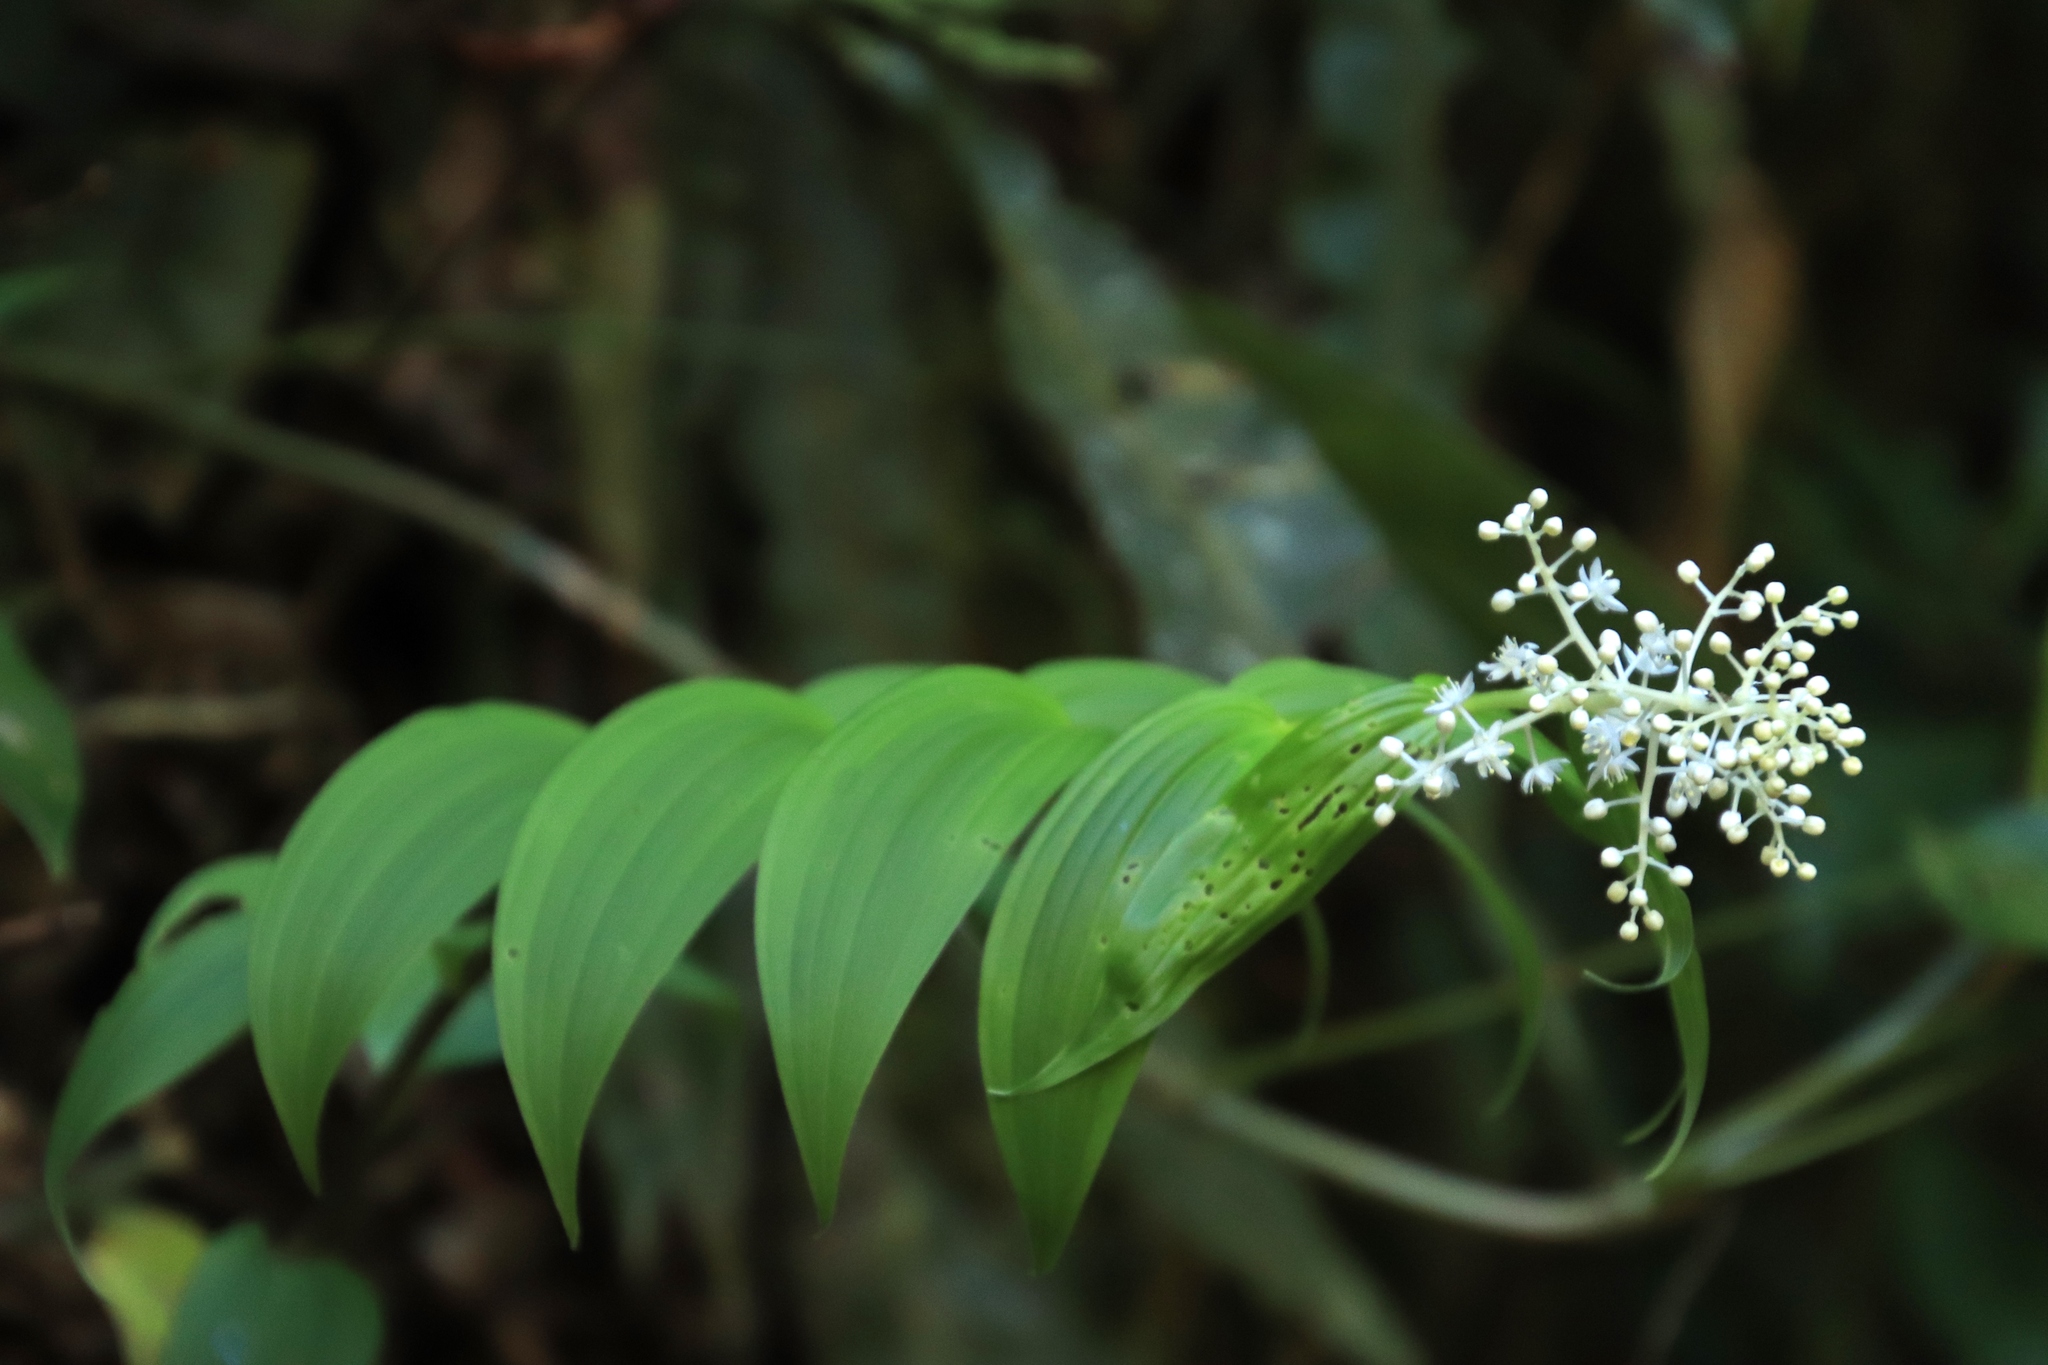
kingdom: Plantae
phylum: Tracheophyta
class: Liliopsida
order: Asparagales
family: Asparagaceae
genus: Maianthemum
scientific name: Maianthemum gigas
